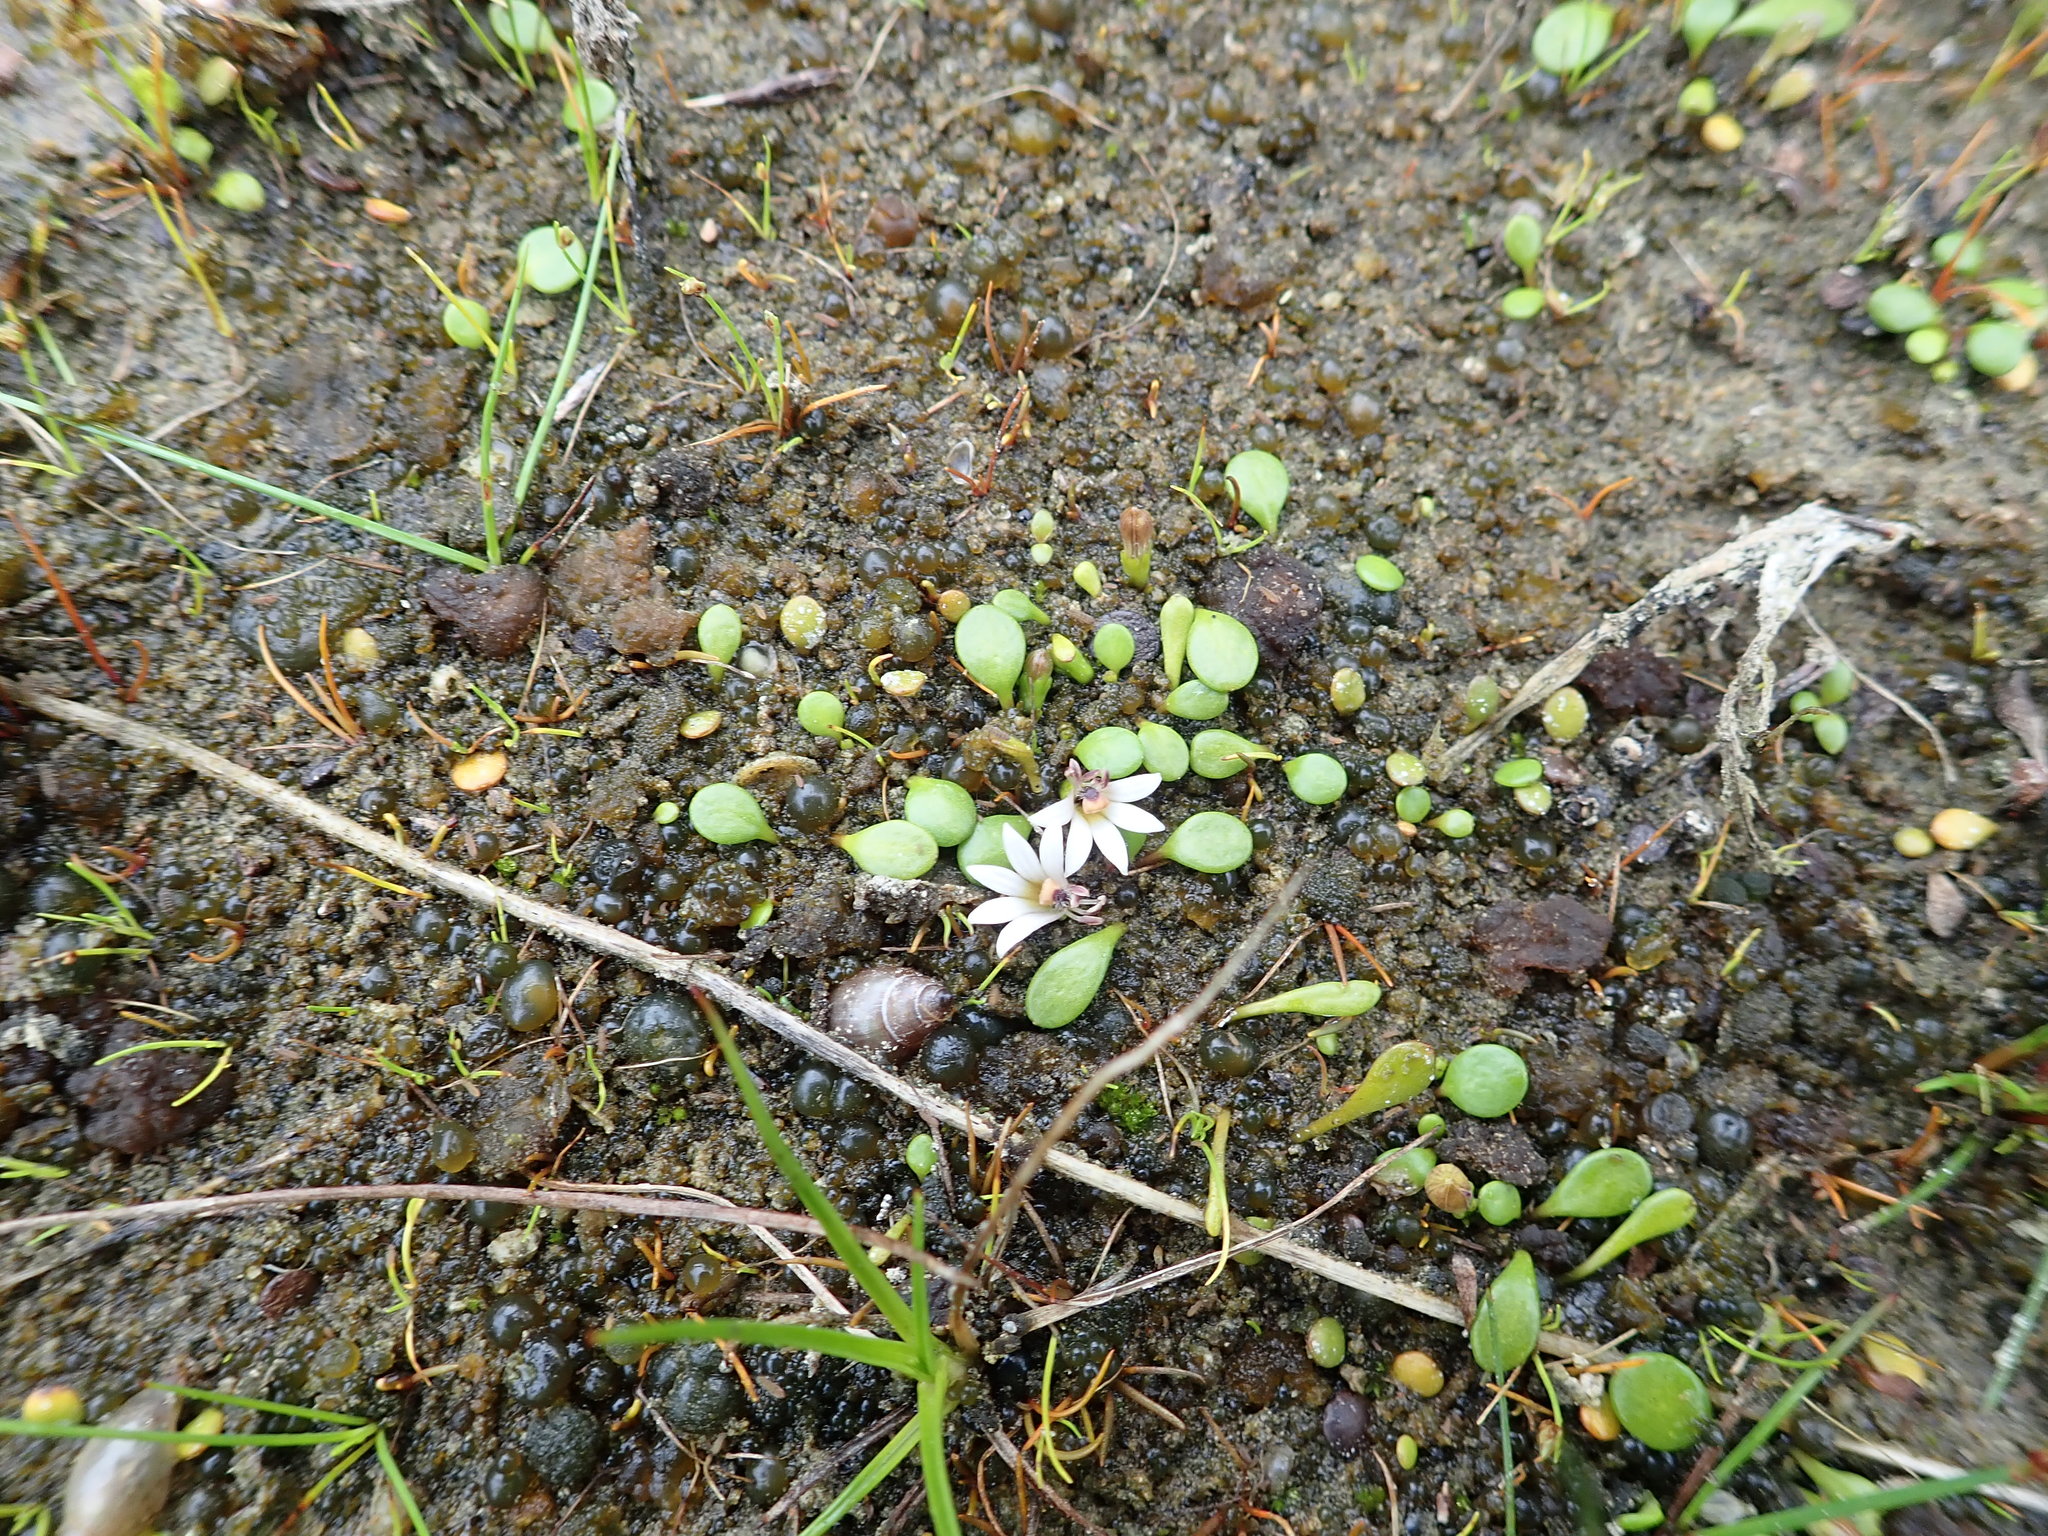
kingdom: Plantae
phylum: Tracheophyta
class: Magnoliopsida
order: Asterales
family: Goodeniaceae
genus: Goodenia
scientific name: Goodenia heenanii
